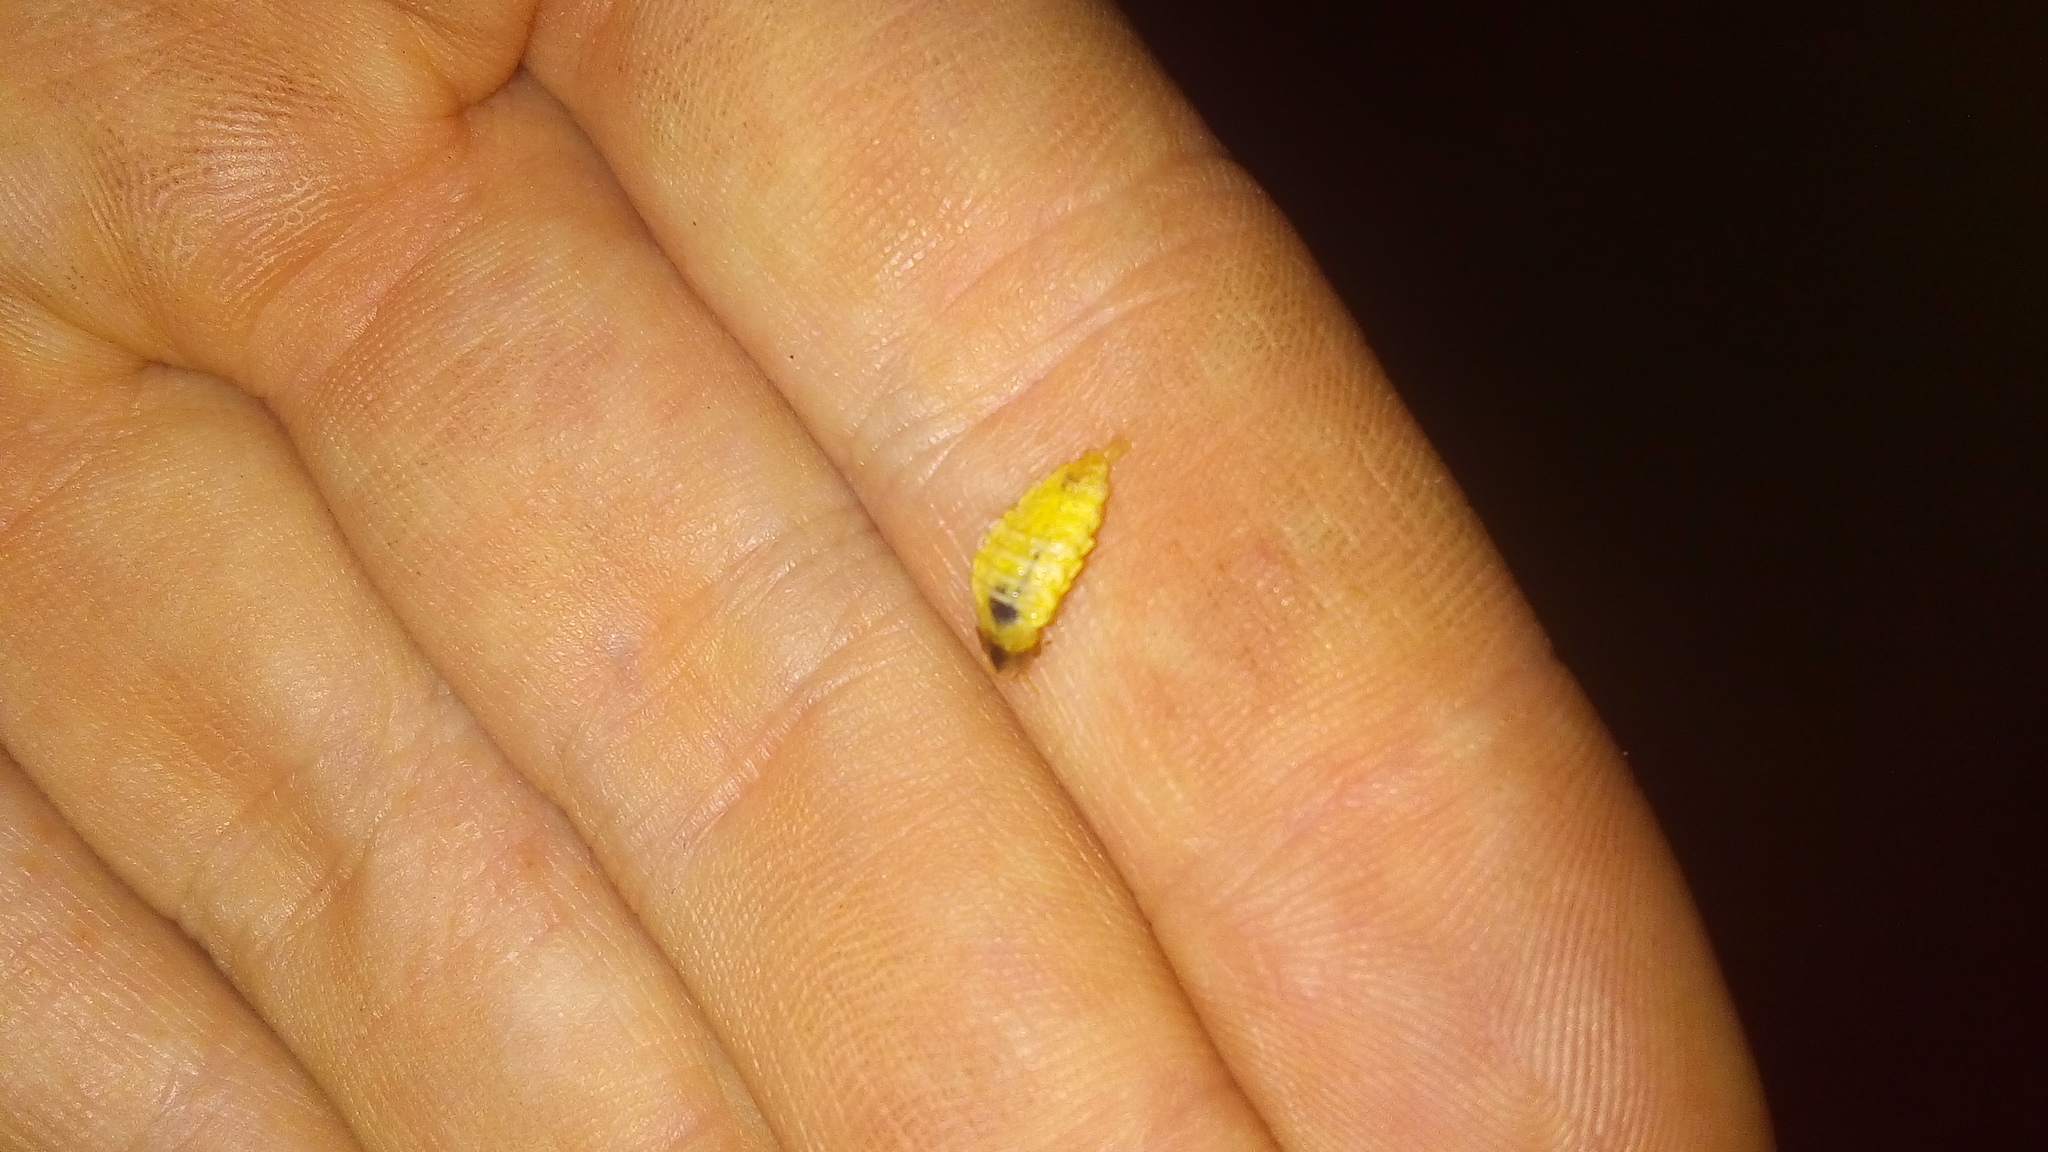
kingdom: Animalia
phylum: Arthropoda
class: Insecta
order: Coleoptera
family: Lampyridae
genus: Lamprohiza
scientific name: Lamprohiza splendidula
